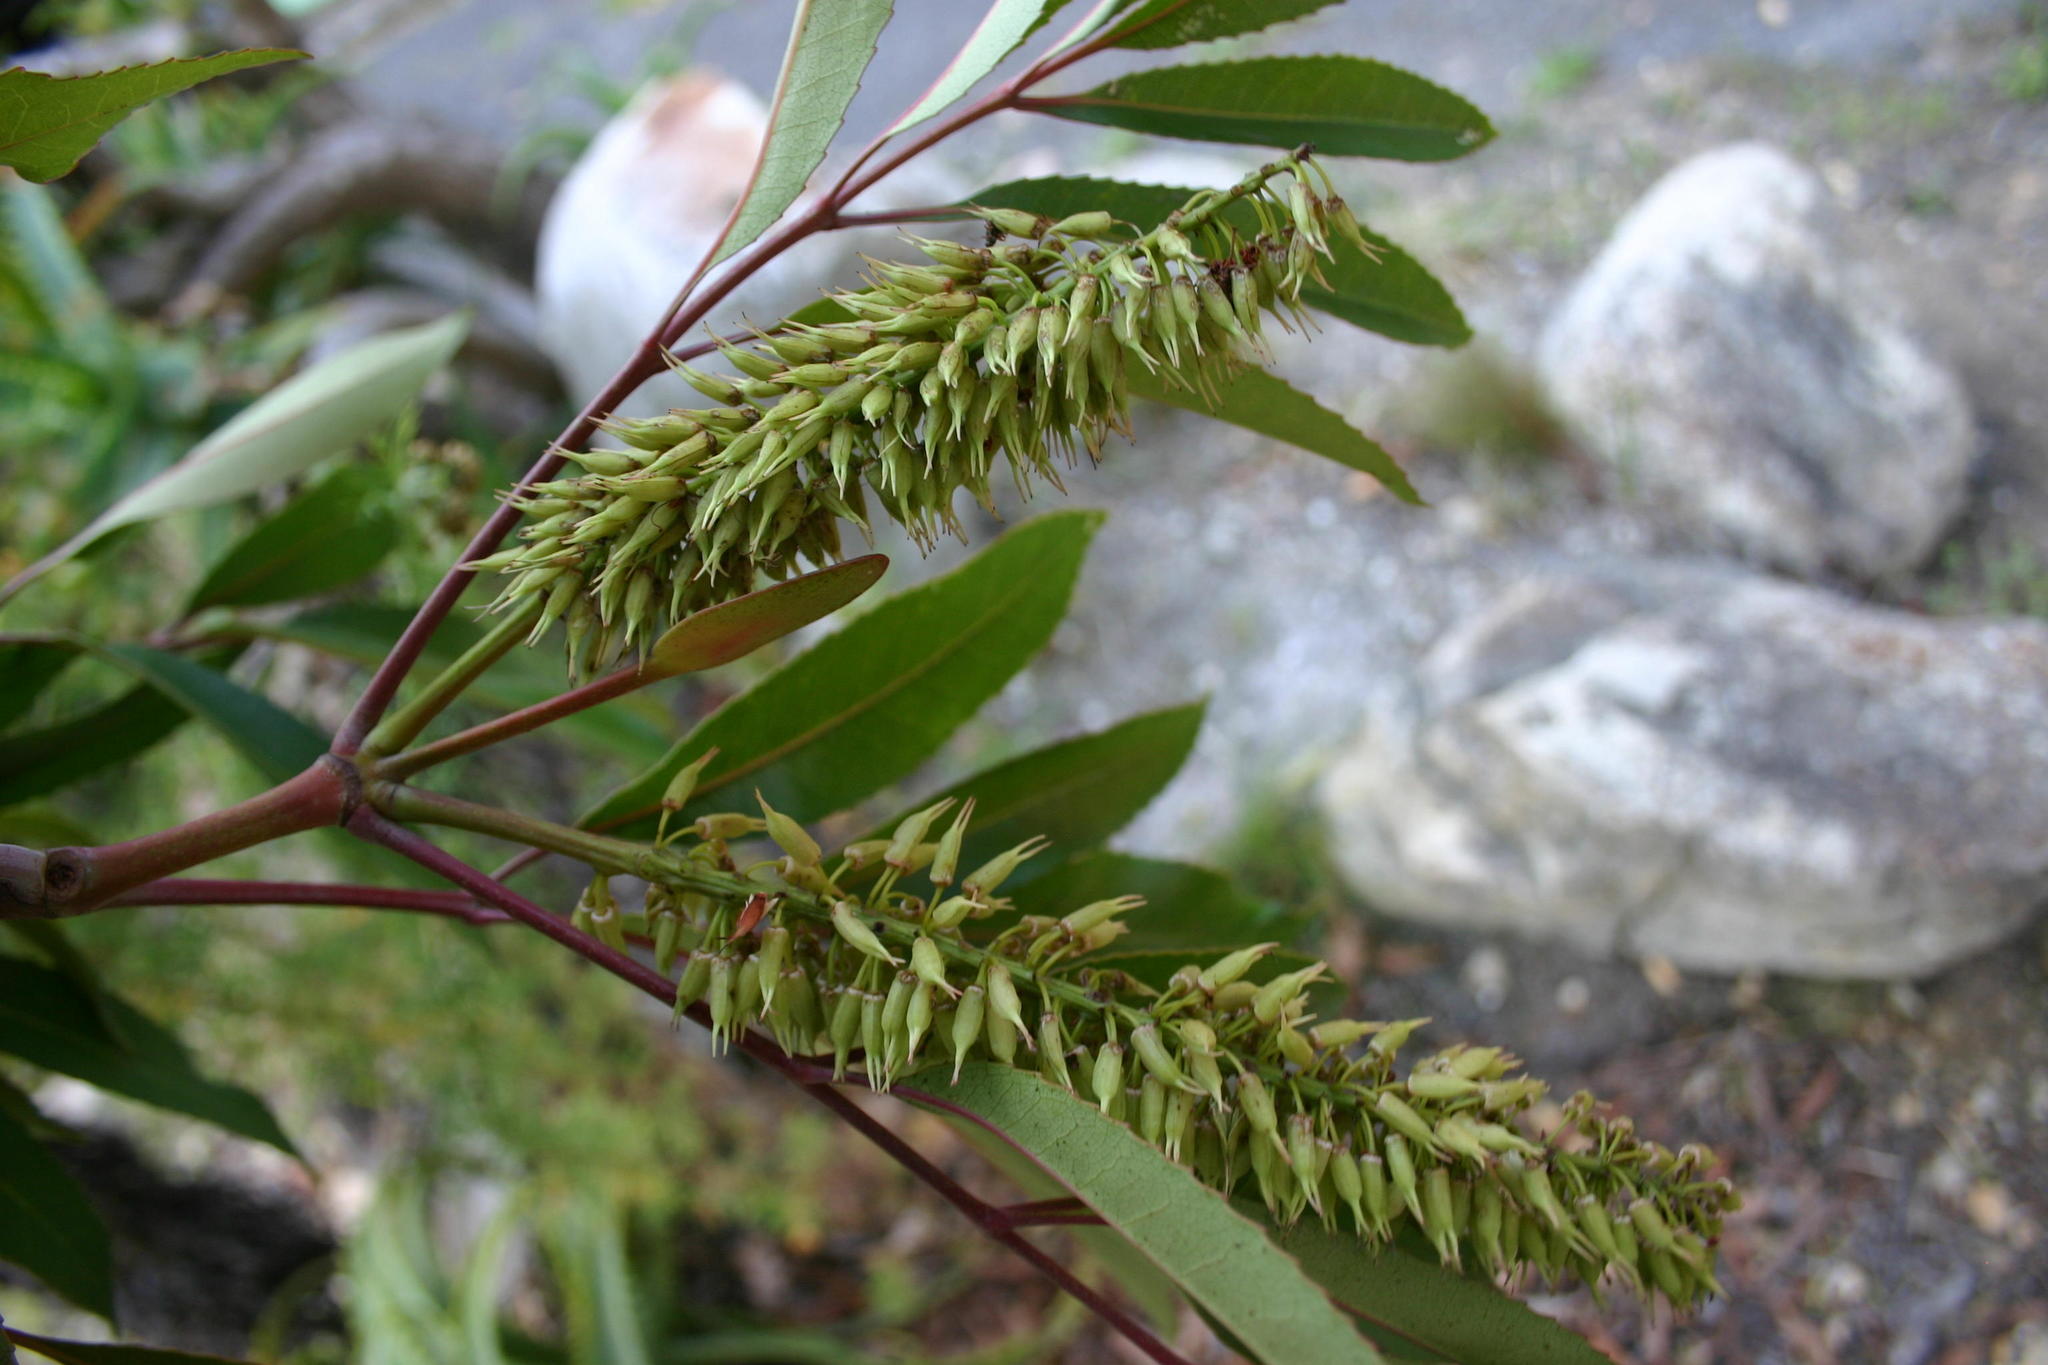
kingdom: Plantae
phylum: Tracheophyta
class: Magnoliopsida
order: Oxalidales
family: Cunoniaceae
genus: Cunonia
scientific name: Cunonia capensis
